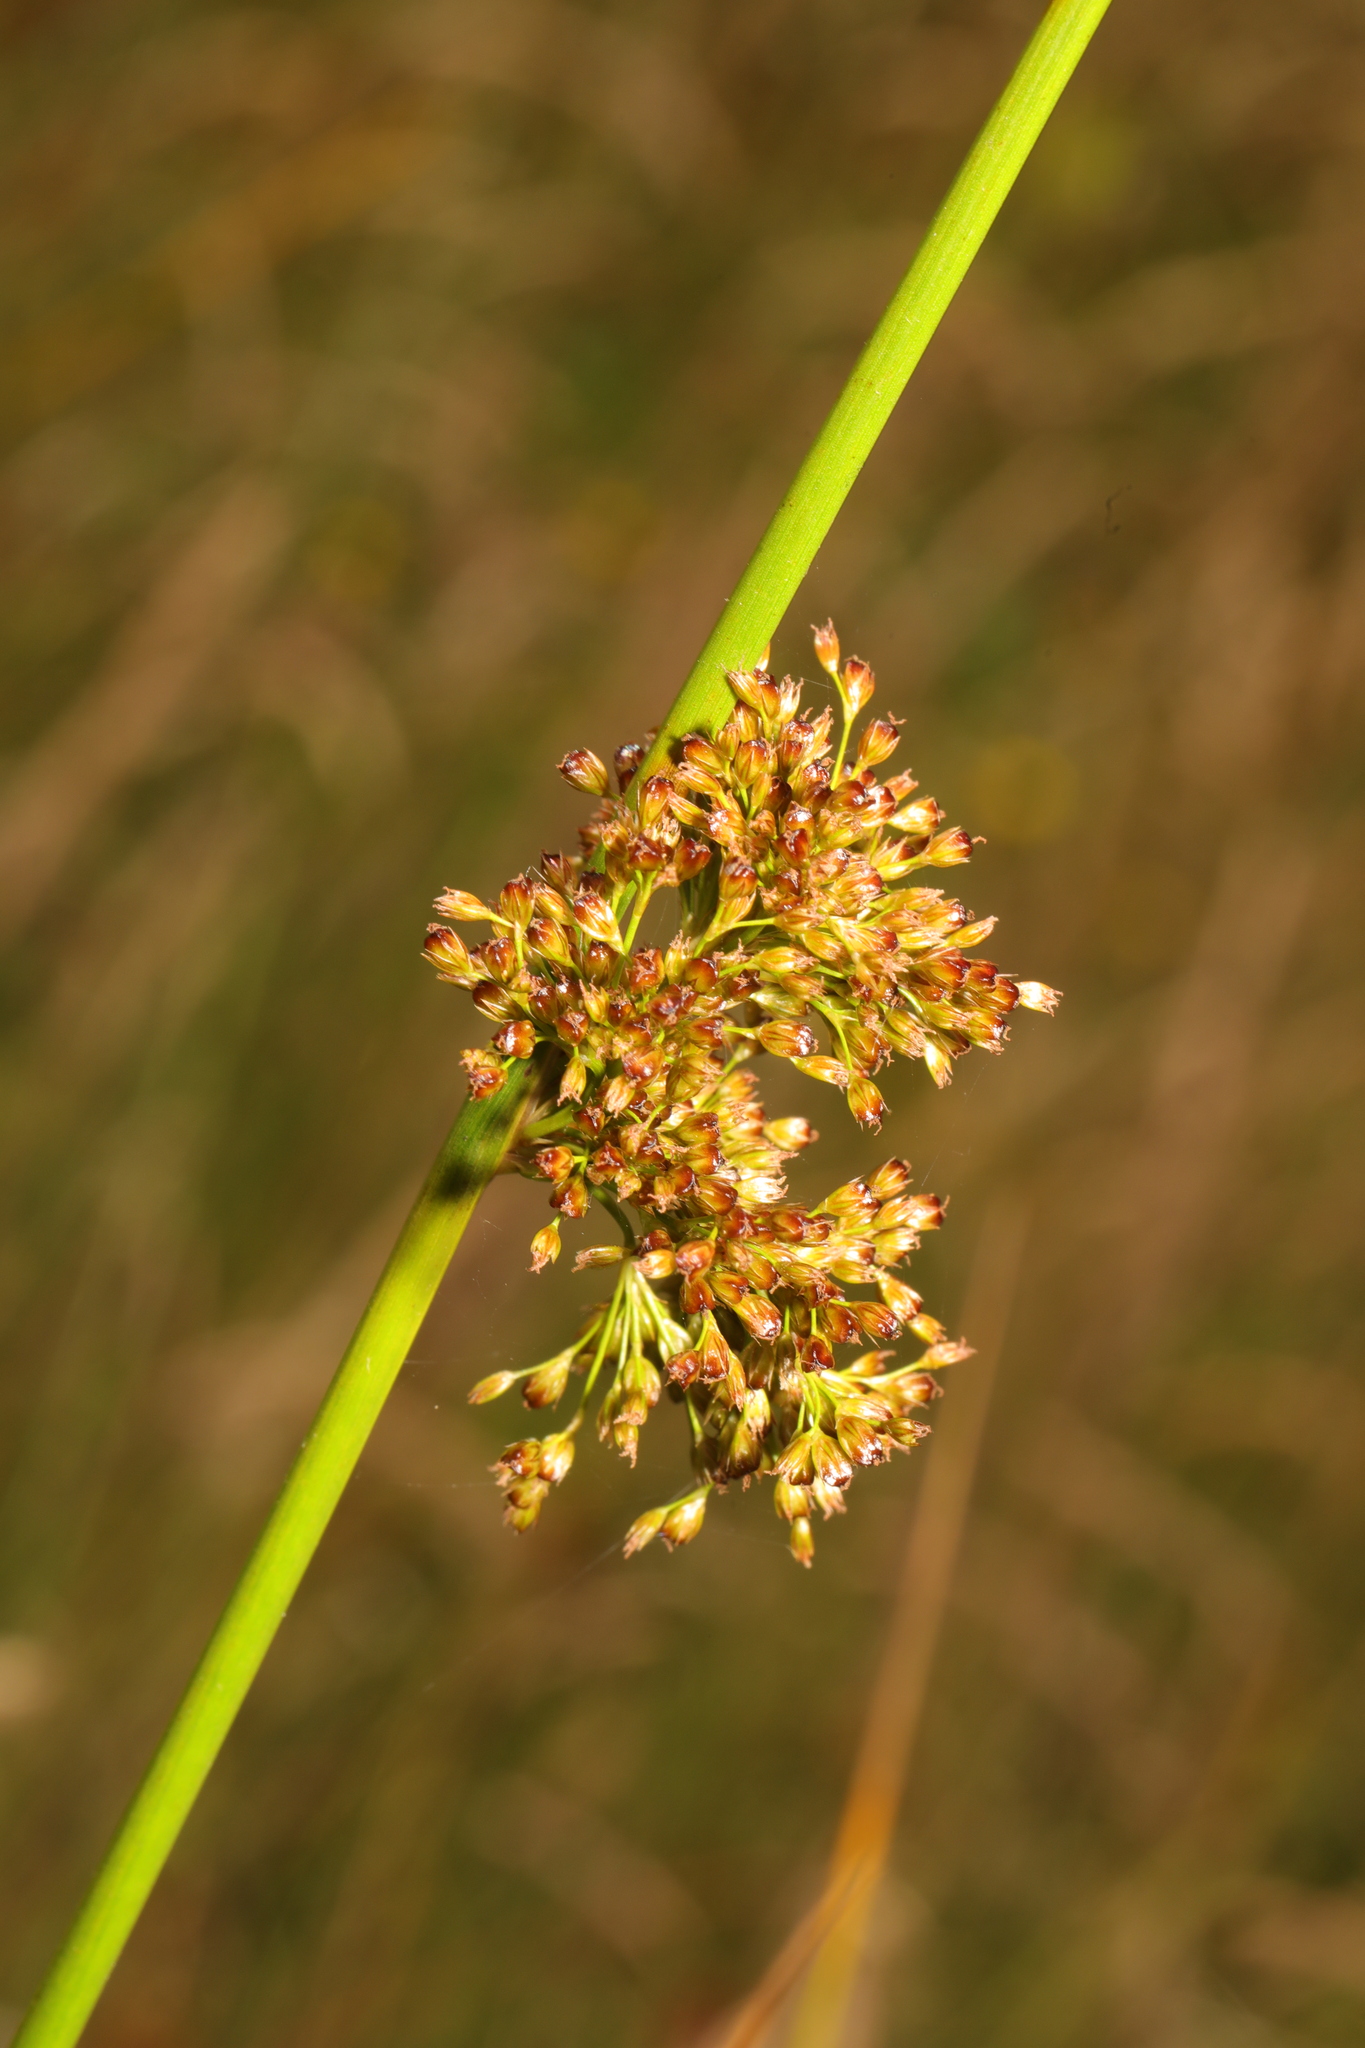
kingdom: Plantae
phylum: Tracheophyta
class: Liliopsida
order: Poales
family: Juncaceae
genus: Juncus
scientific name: Juncus effusus
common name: Soft rush
